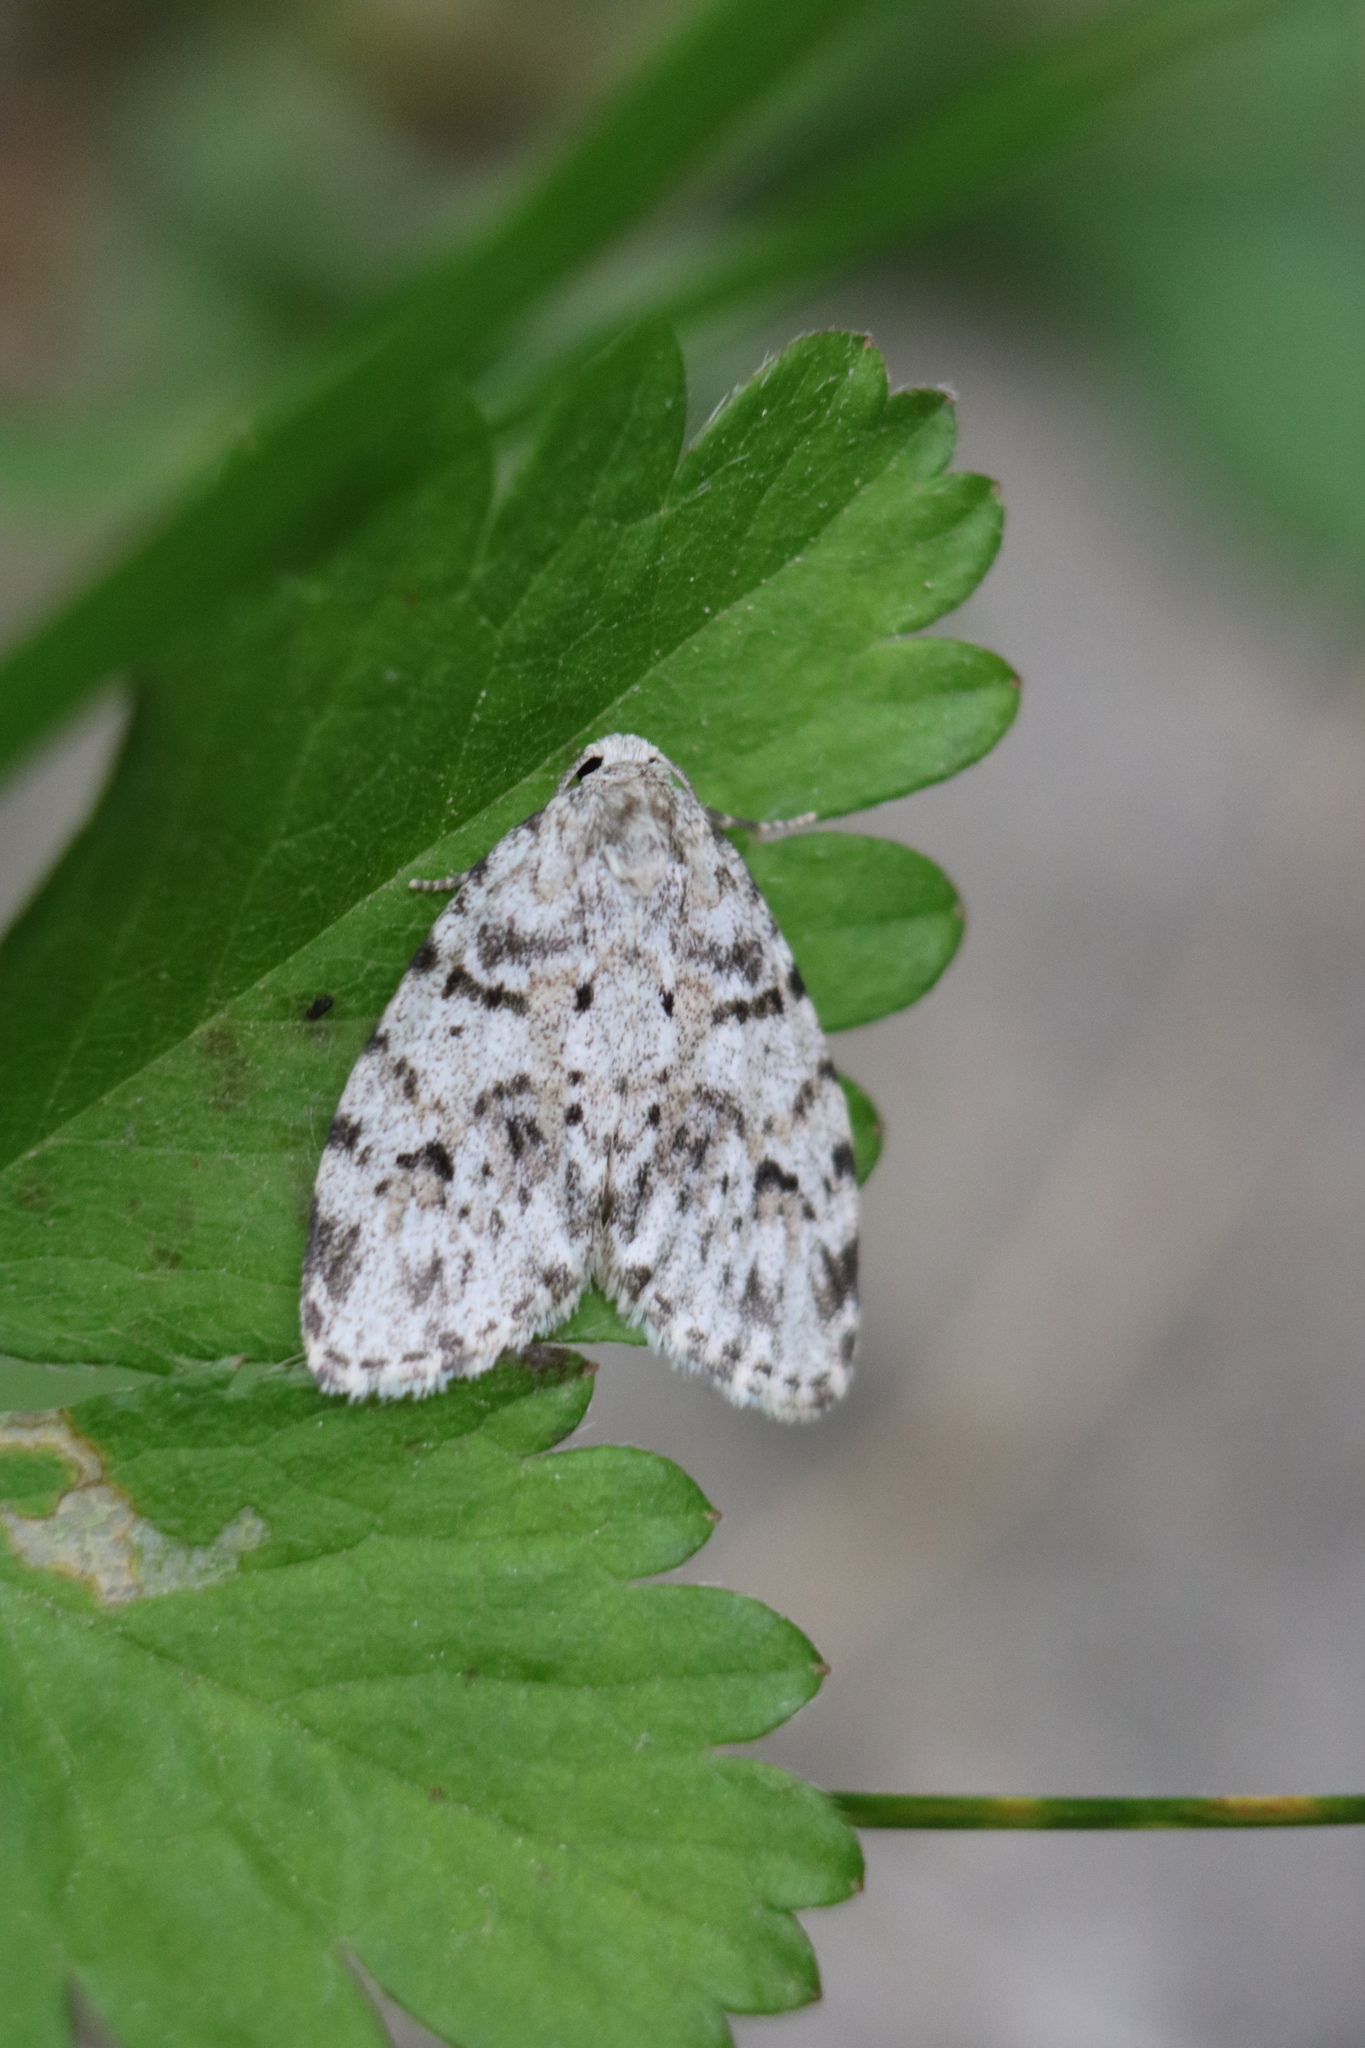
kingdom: Animalia
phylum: Arthropoda
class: Insecta
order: Lepidoptera
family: Erebidae
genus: Clemensia
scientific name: Clemensia albata
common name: Little white lichen moth
